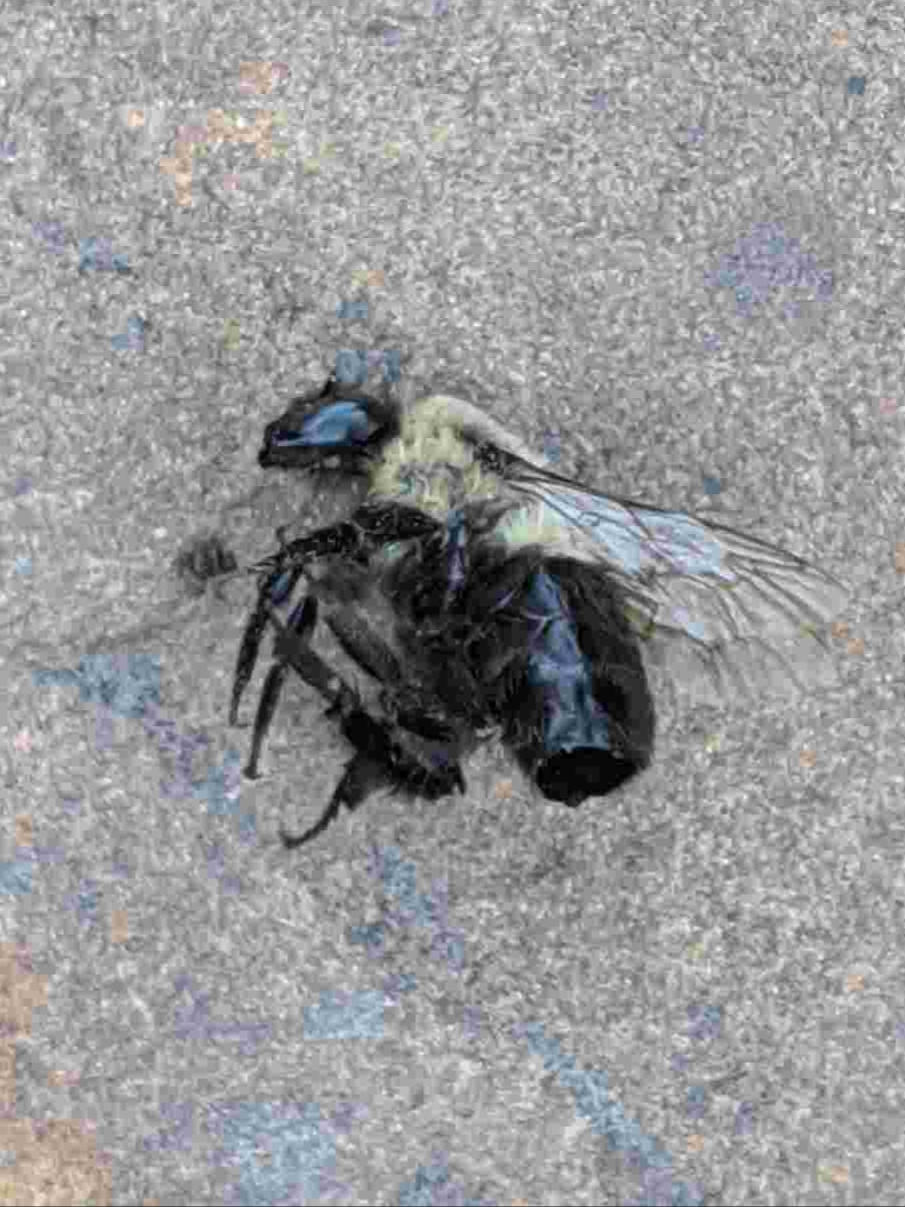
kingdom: Animalia
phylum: Arthropoda
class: Insecta
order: Hymenoptera
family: Apidae
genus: Bombus
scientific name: Bombus impatiens
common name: Common eastern bumble bee
